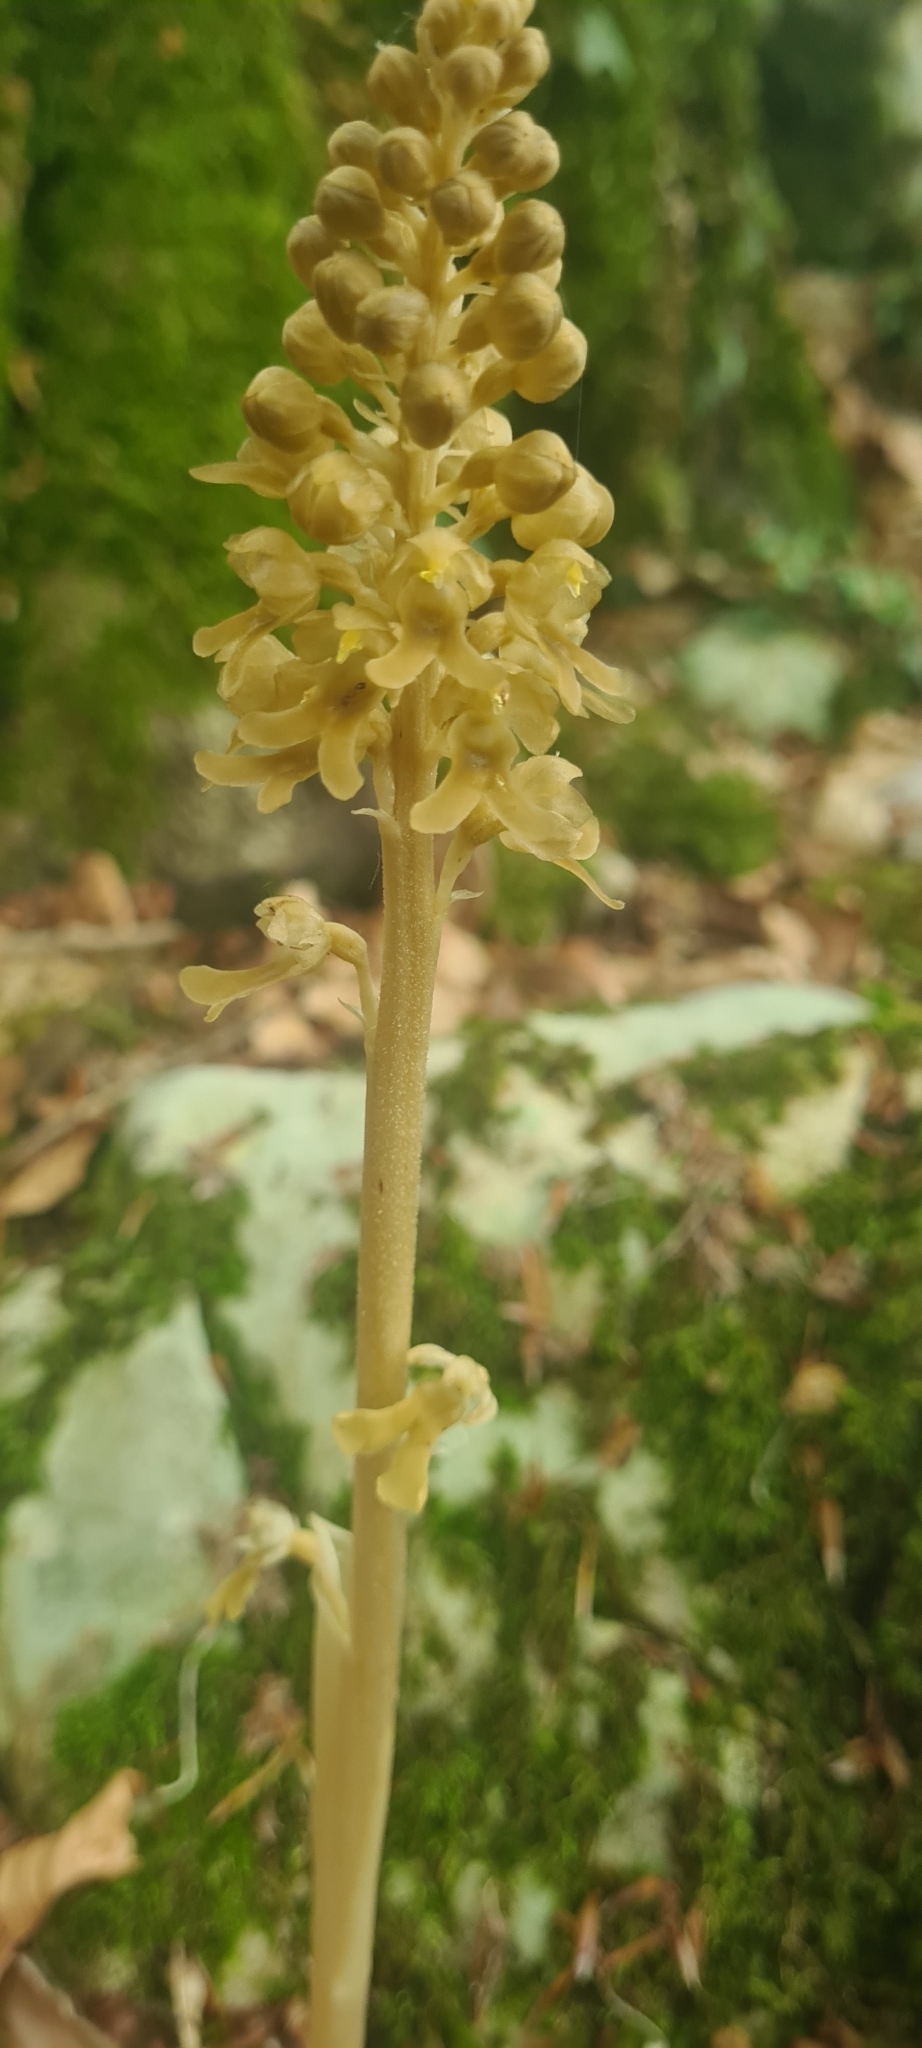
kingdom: Plantae
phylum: Tracheophyta
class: Liliopsida
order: Asparagales
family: Orchidaceae
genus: Neottia
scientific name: Neottia nidus-avis
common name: Bird's-nest orchid
